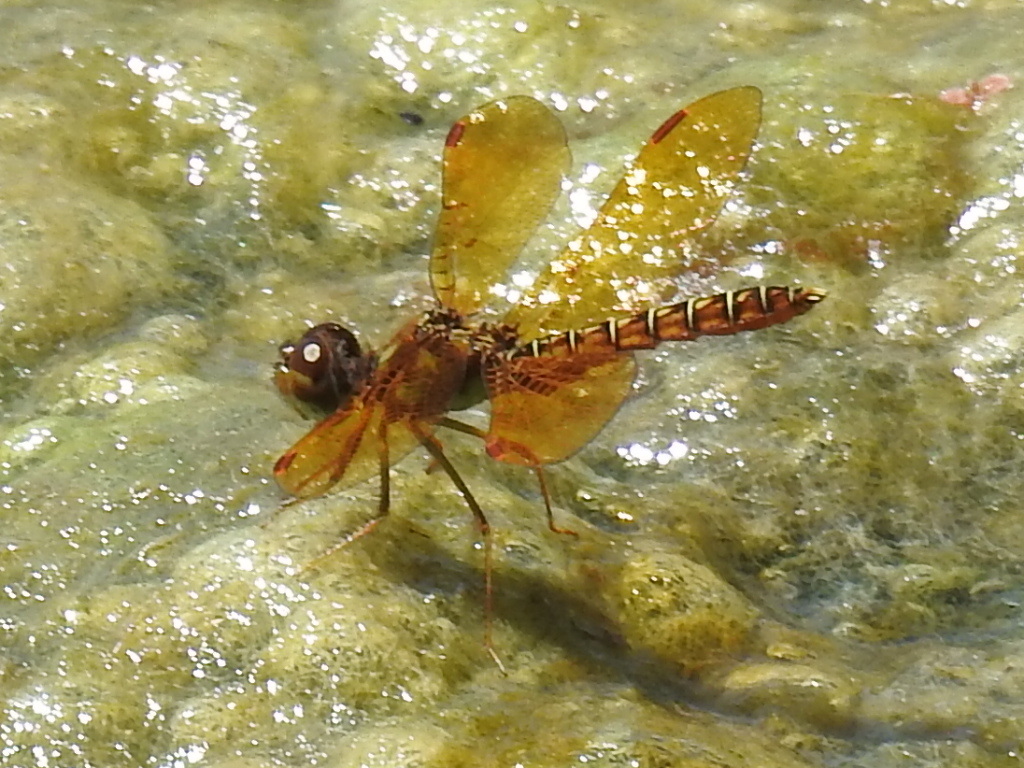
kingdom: Animalia
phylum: Arthropoda
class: Insecta
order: Odonata
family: Libellulidae
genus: Perithemis
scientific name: Perithemis tenera
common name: Eastern amberwing
